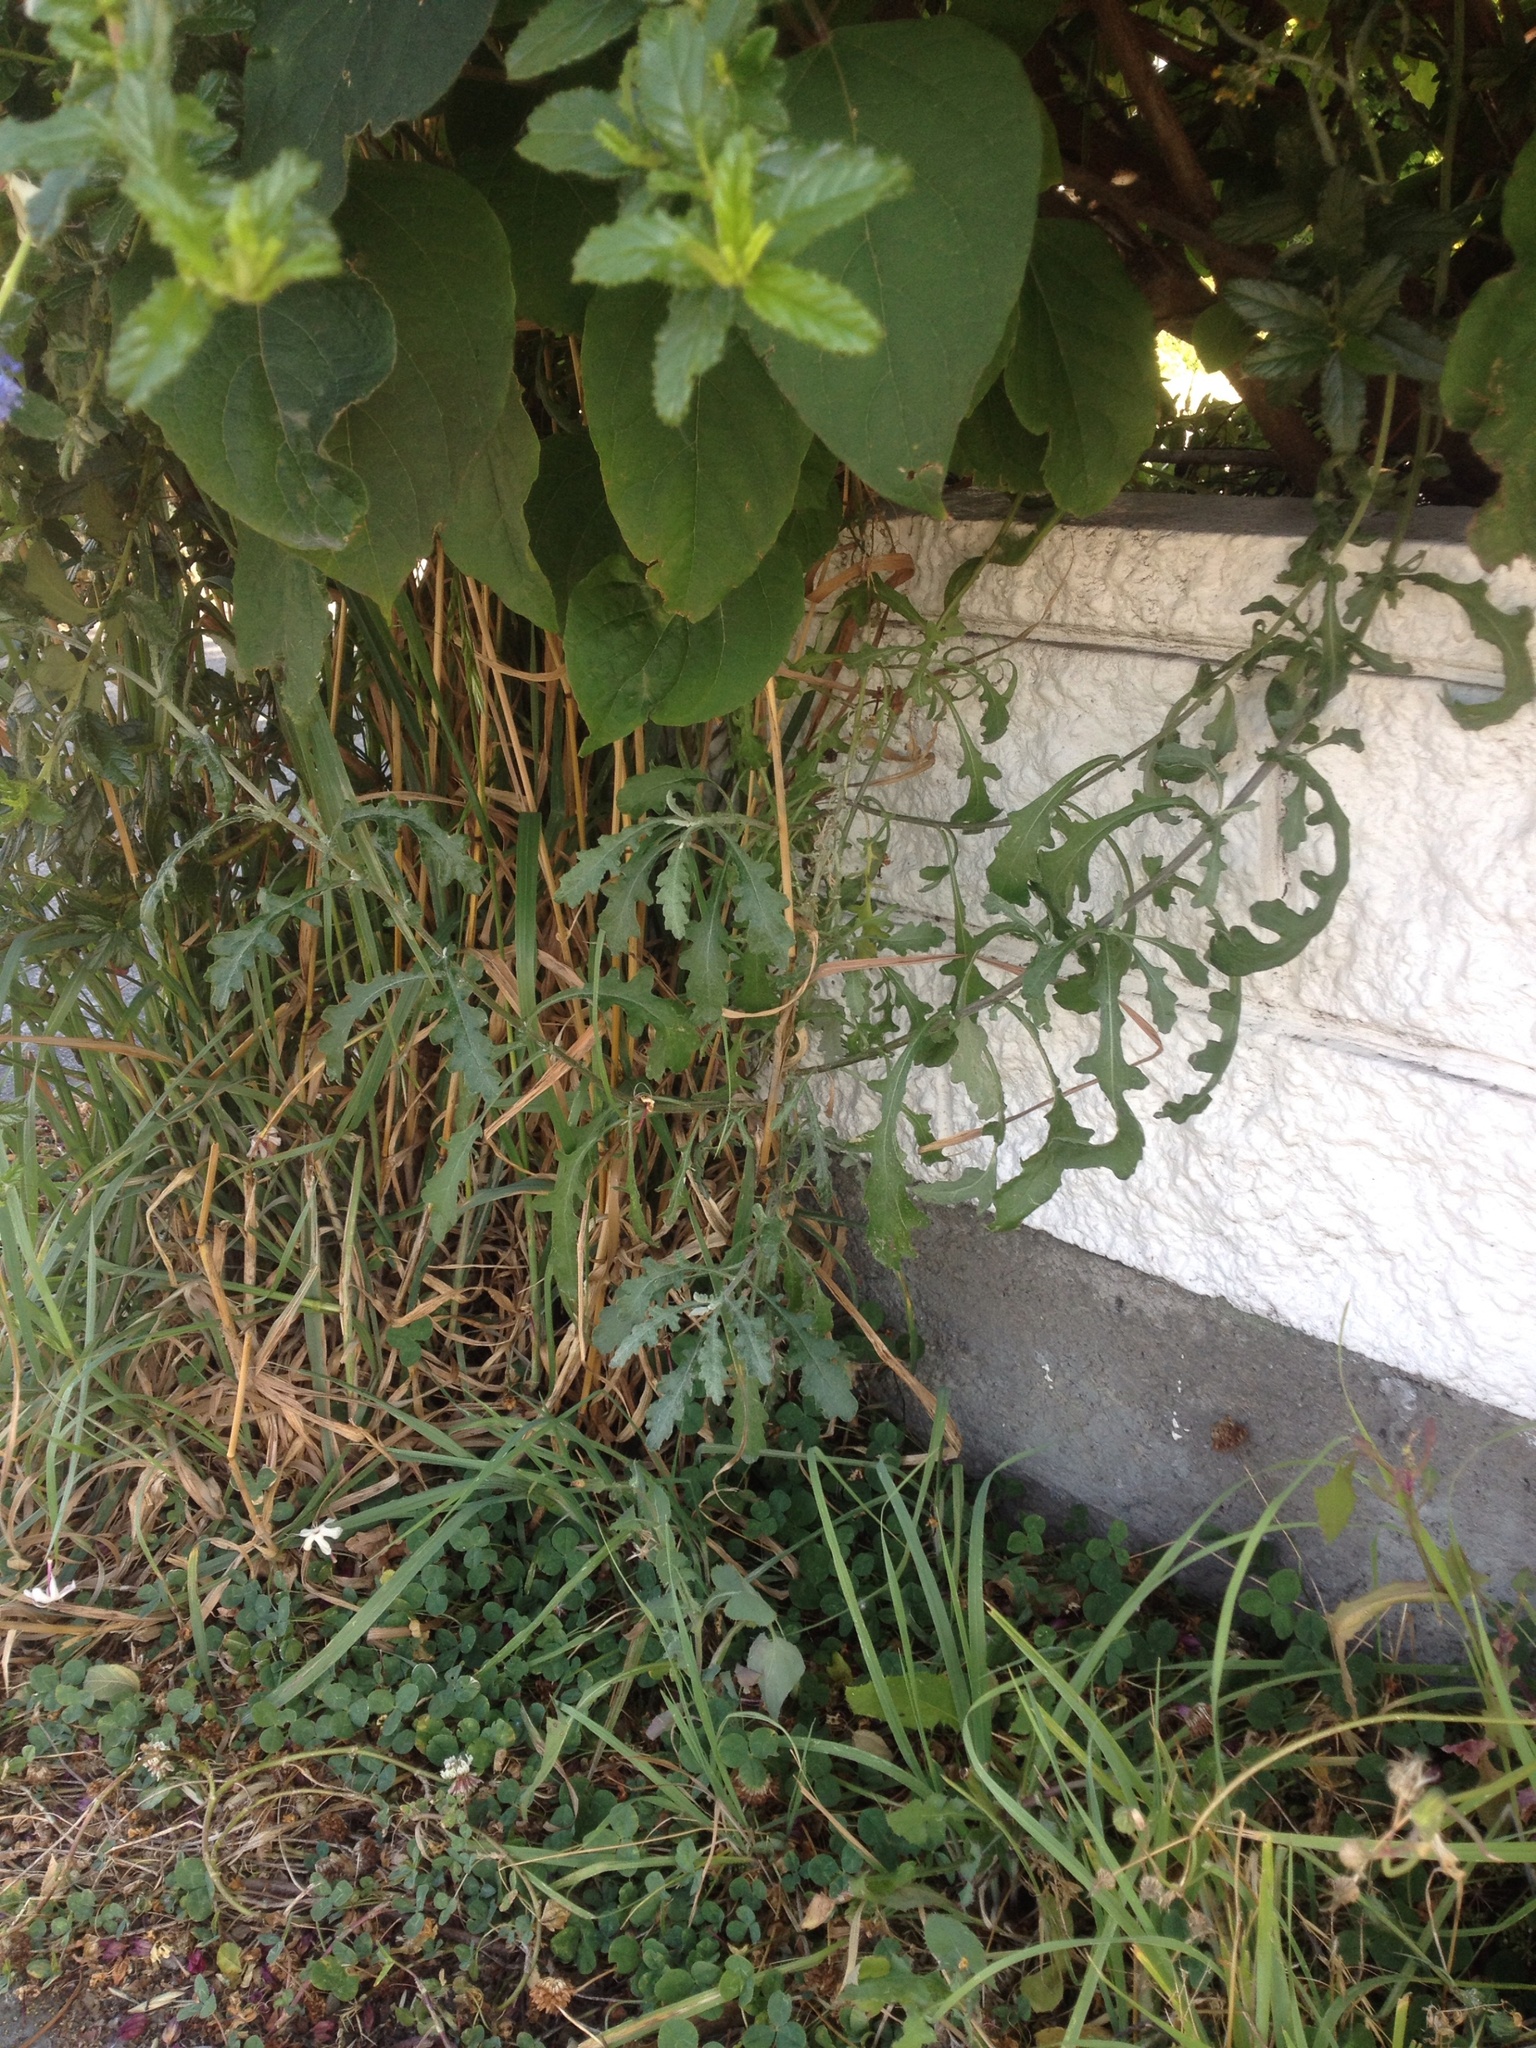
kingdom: Plantae
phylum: Tracheophyta
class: Magnoliopsida
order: Asterales
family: Asteraceae
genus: Senecio
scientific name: Senecio glomeratus
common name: Cutleaf burnweed
